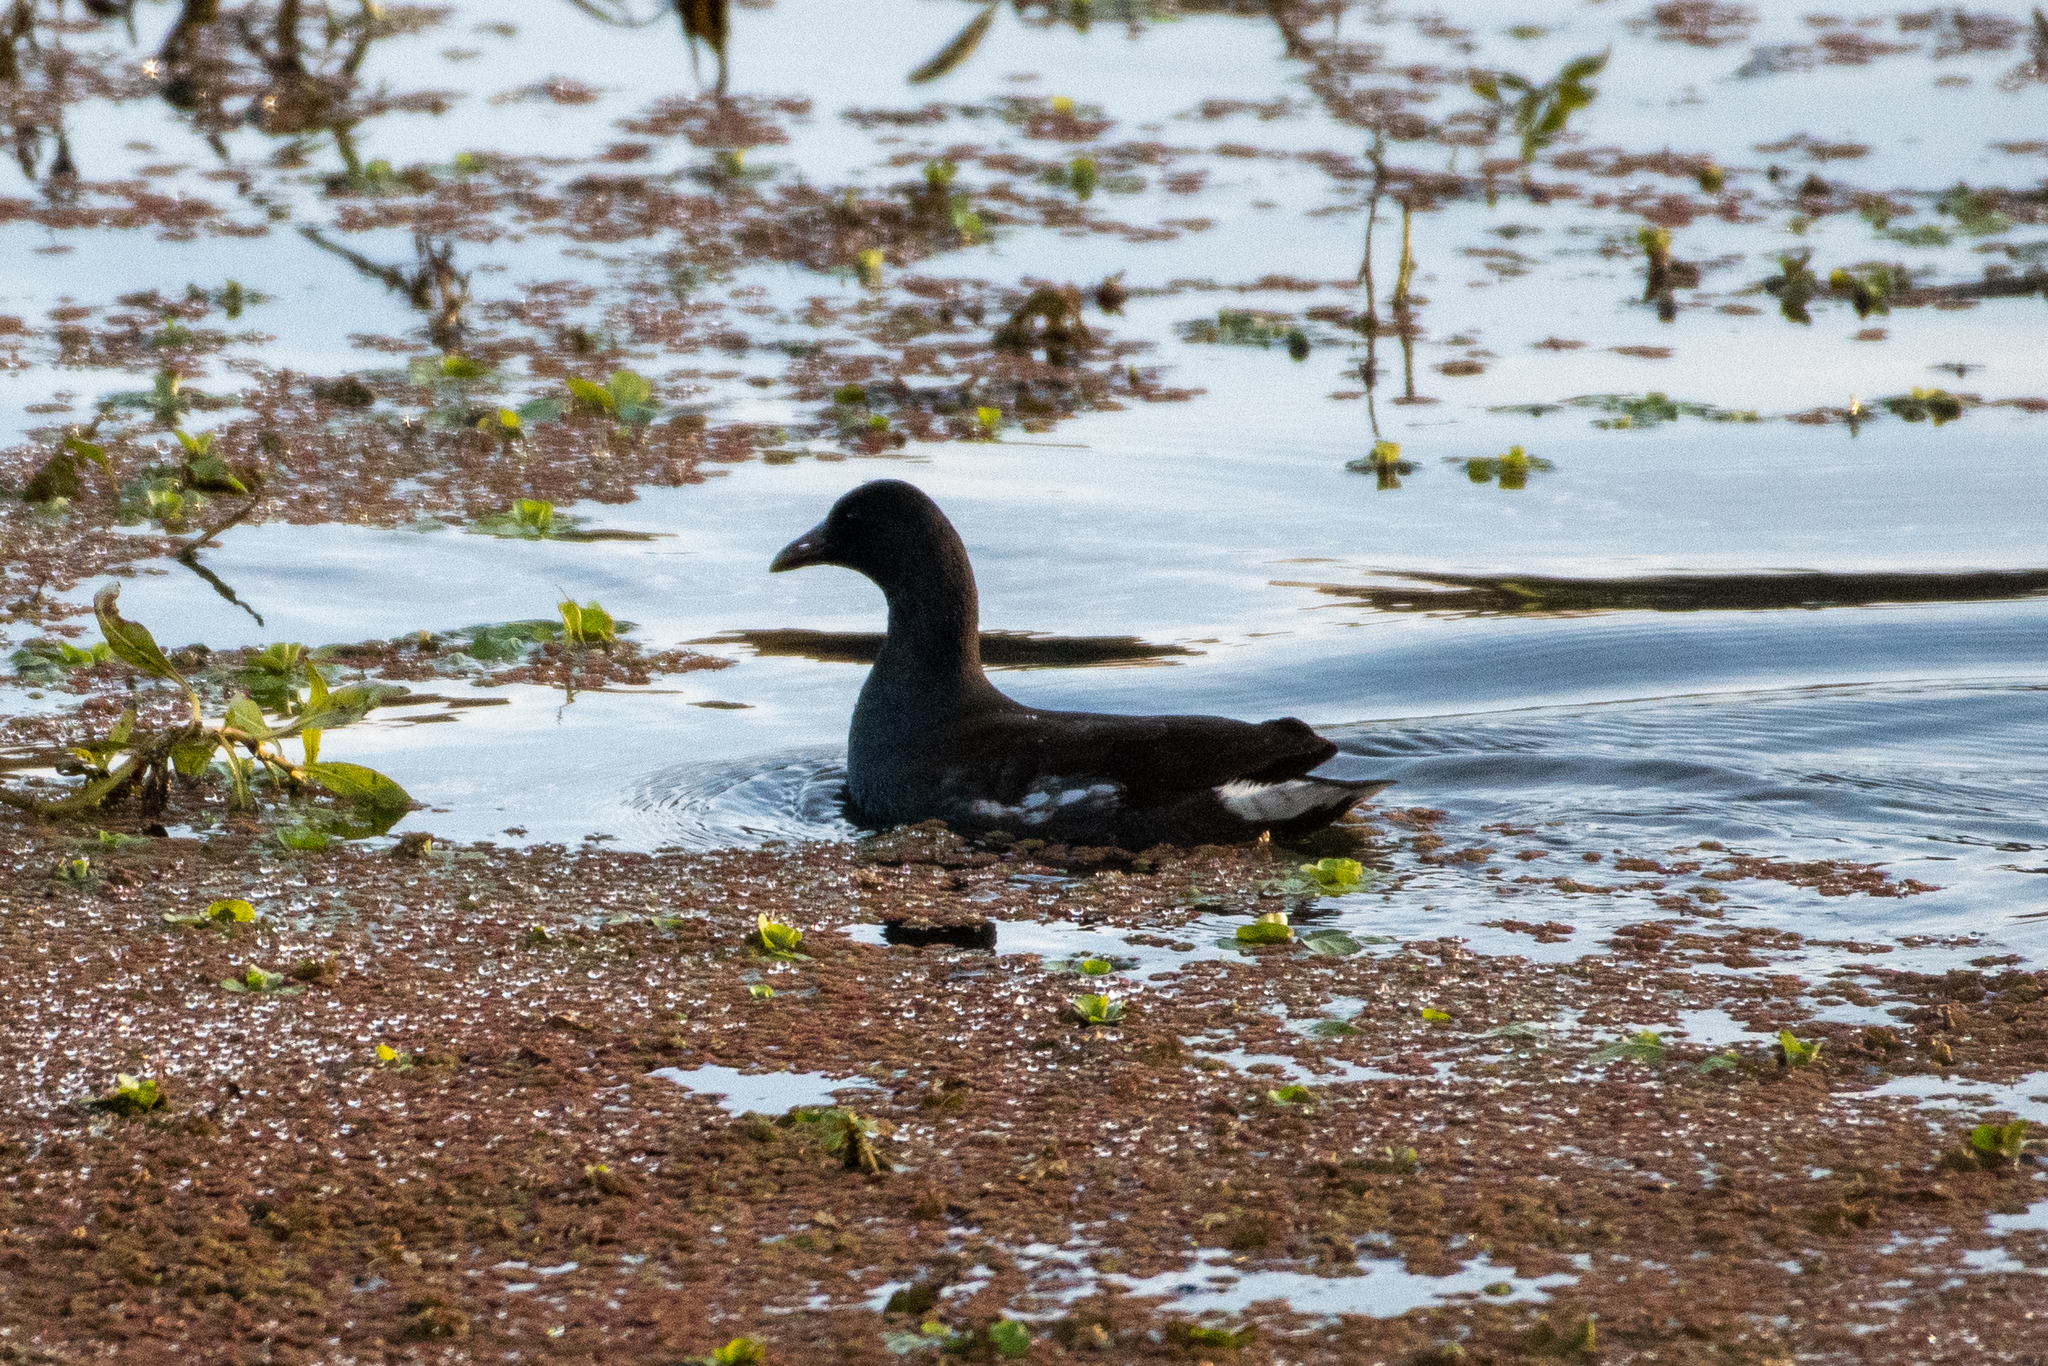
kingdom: Animalia
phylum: Chordata
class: Aves
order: Gruiformes
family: Rallidae
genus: Gallinula
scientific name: Gallinula chloropus
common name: Common moorhen
